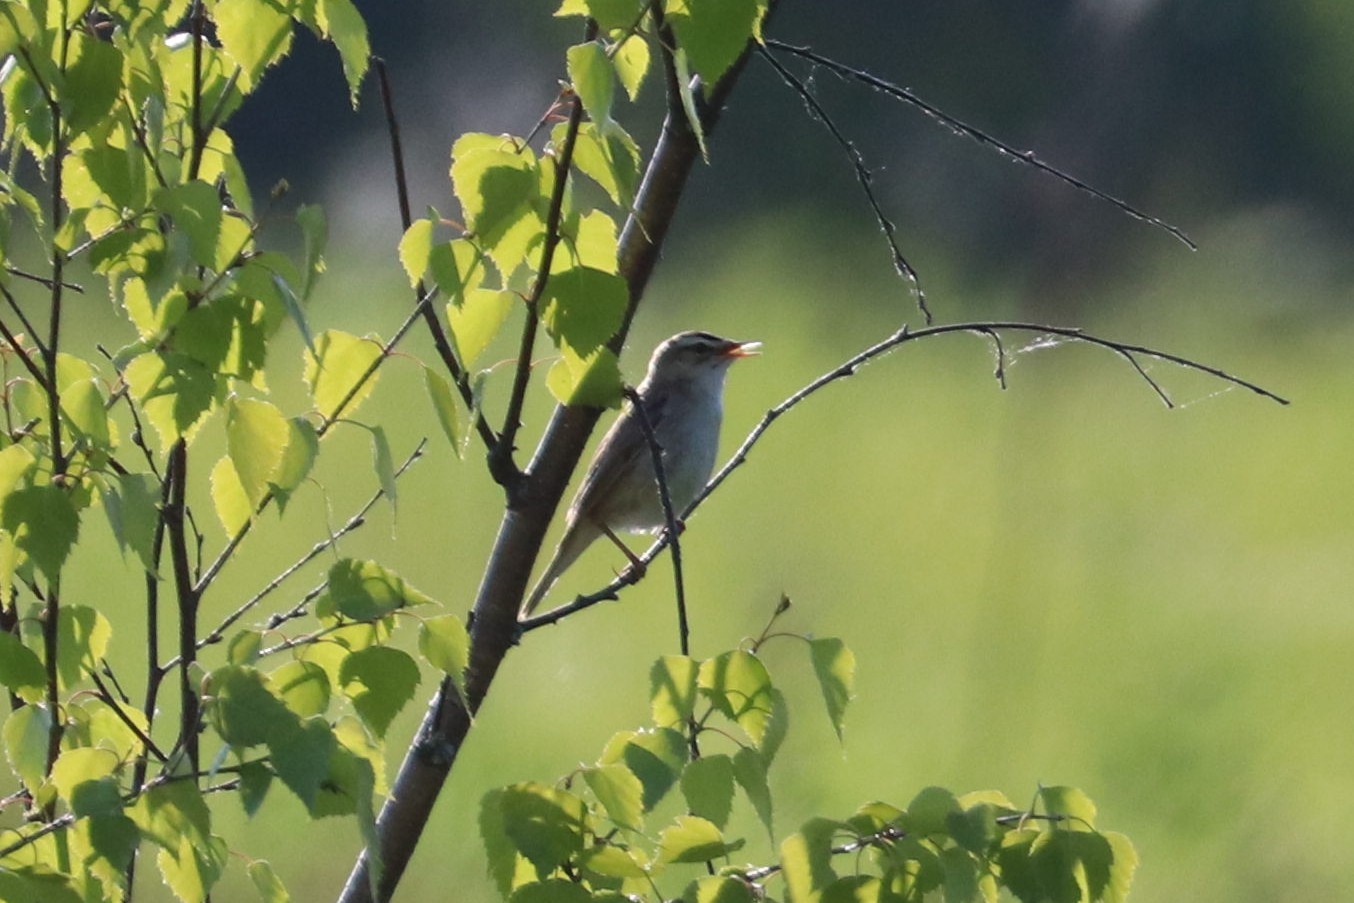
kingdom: Animalia
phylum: Chordata
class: Aves
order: Passeriformes
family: Acrocephalidae
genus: Acrocephalus
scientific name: Acrocephalus schoenobaenus
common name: Sedge warbler
